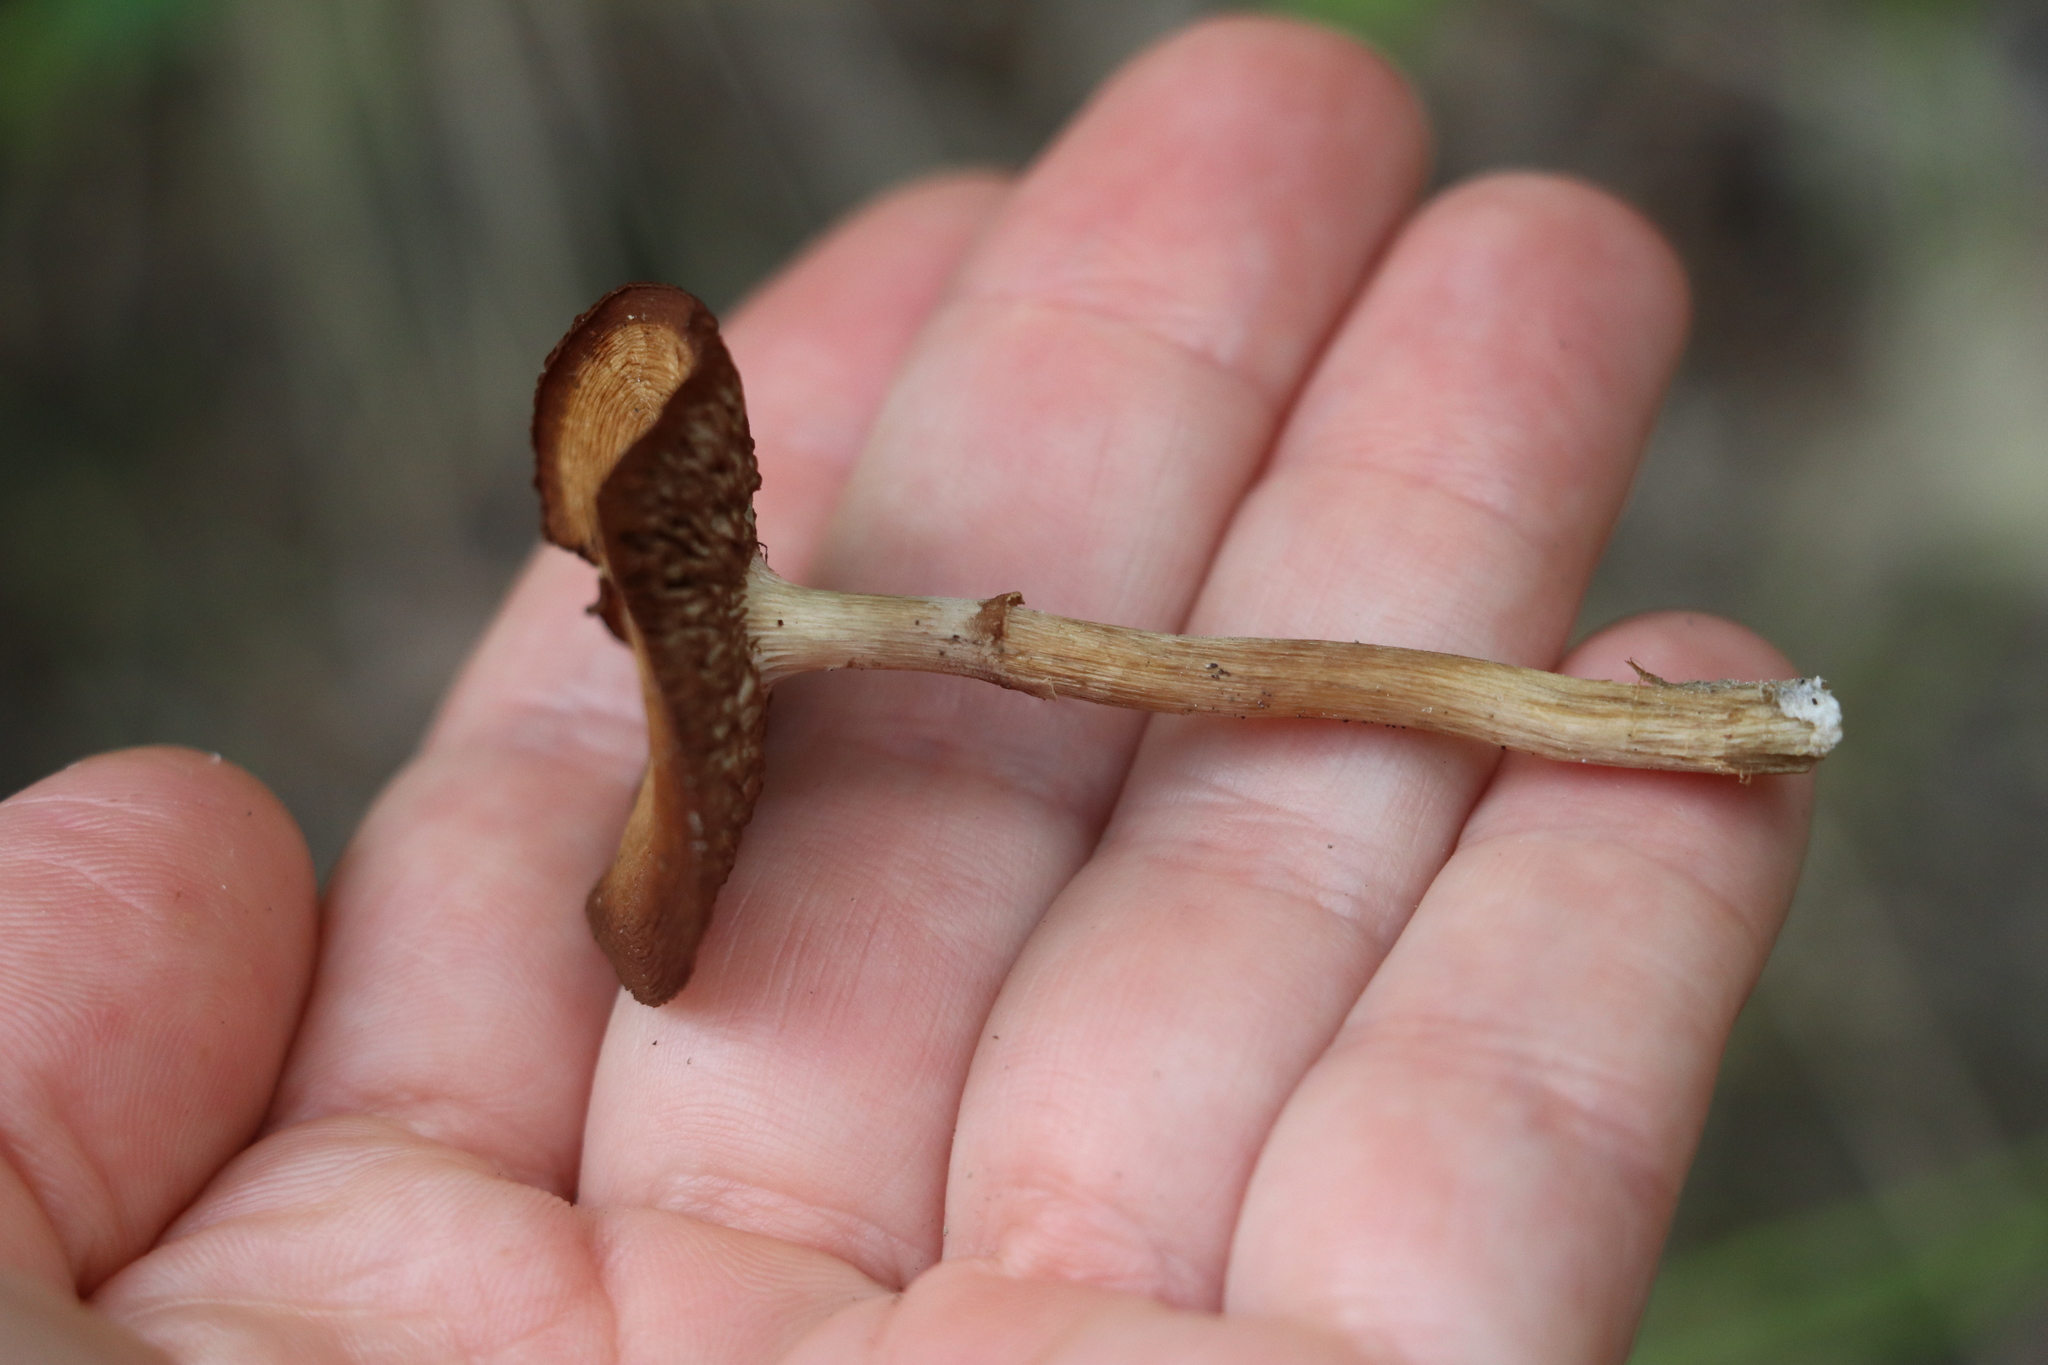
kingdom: Fungi
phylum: Basidiomycota
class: Agaricomycetes
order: Agaricales
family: Strophariaceae
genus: Agrocybe
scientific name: Agrocybe praecox
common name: Spring fieldcap
